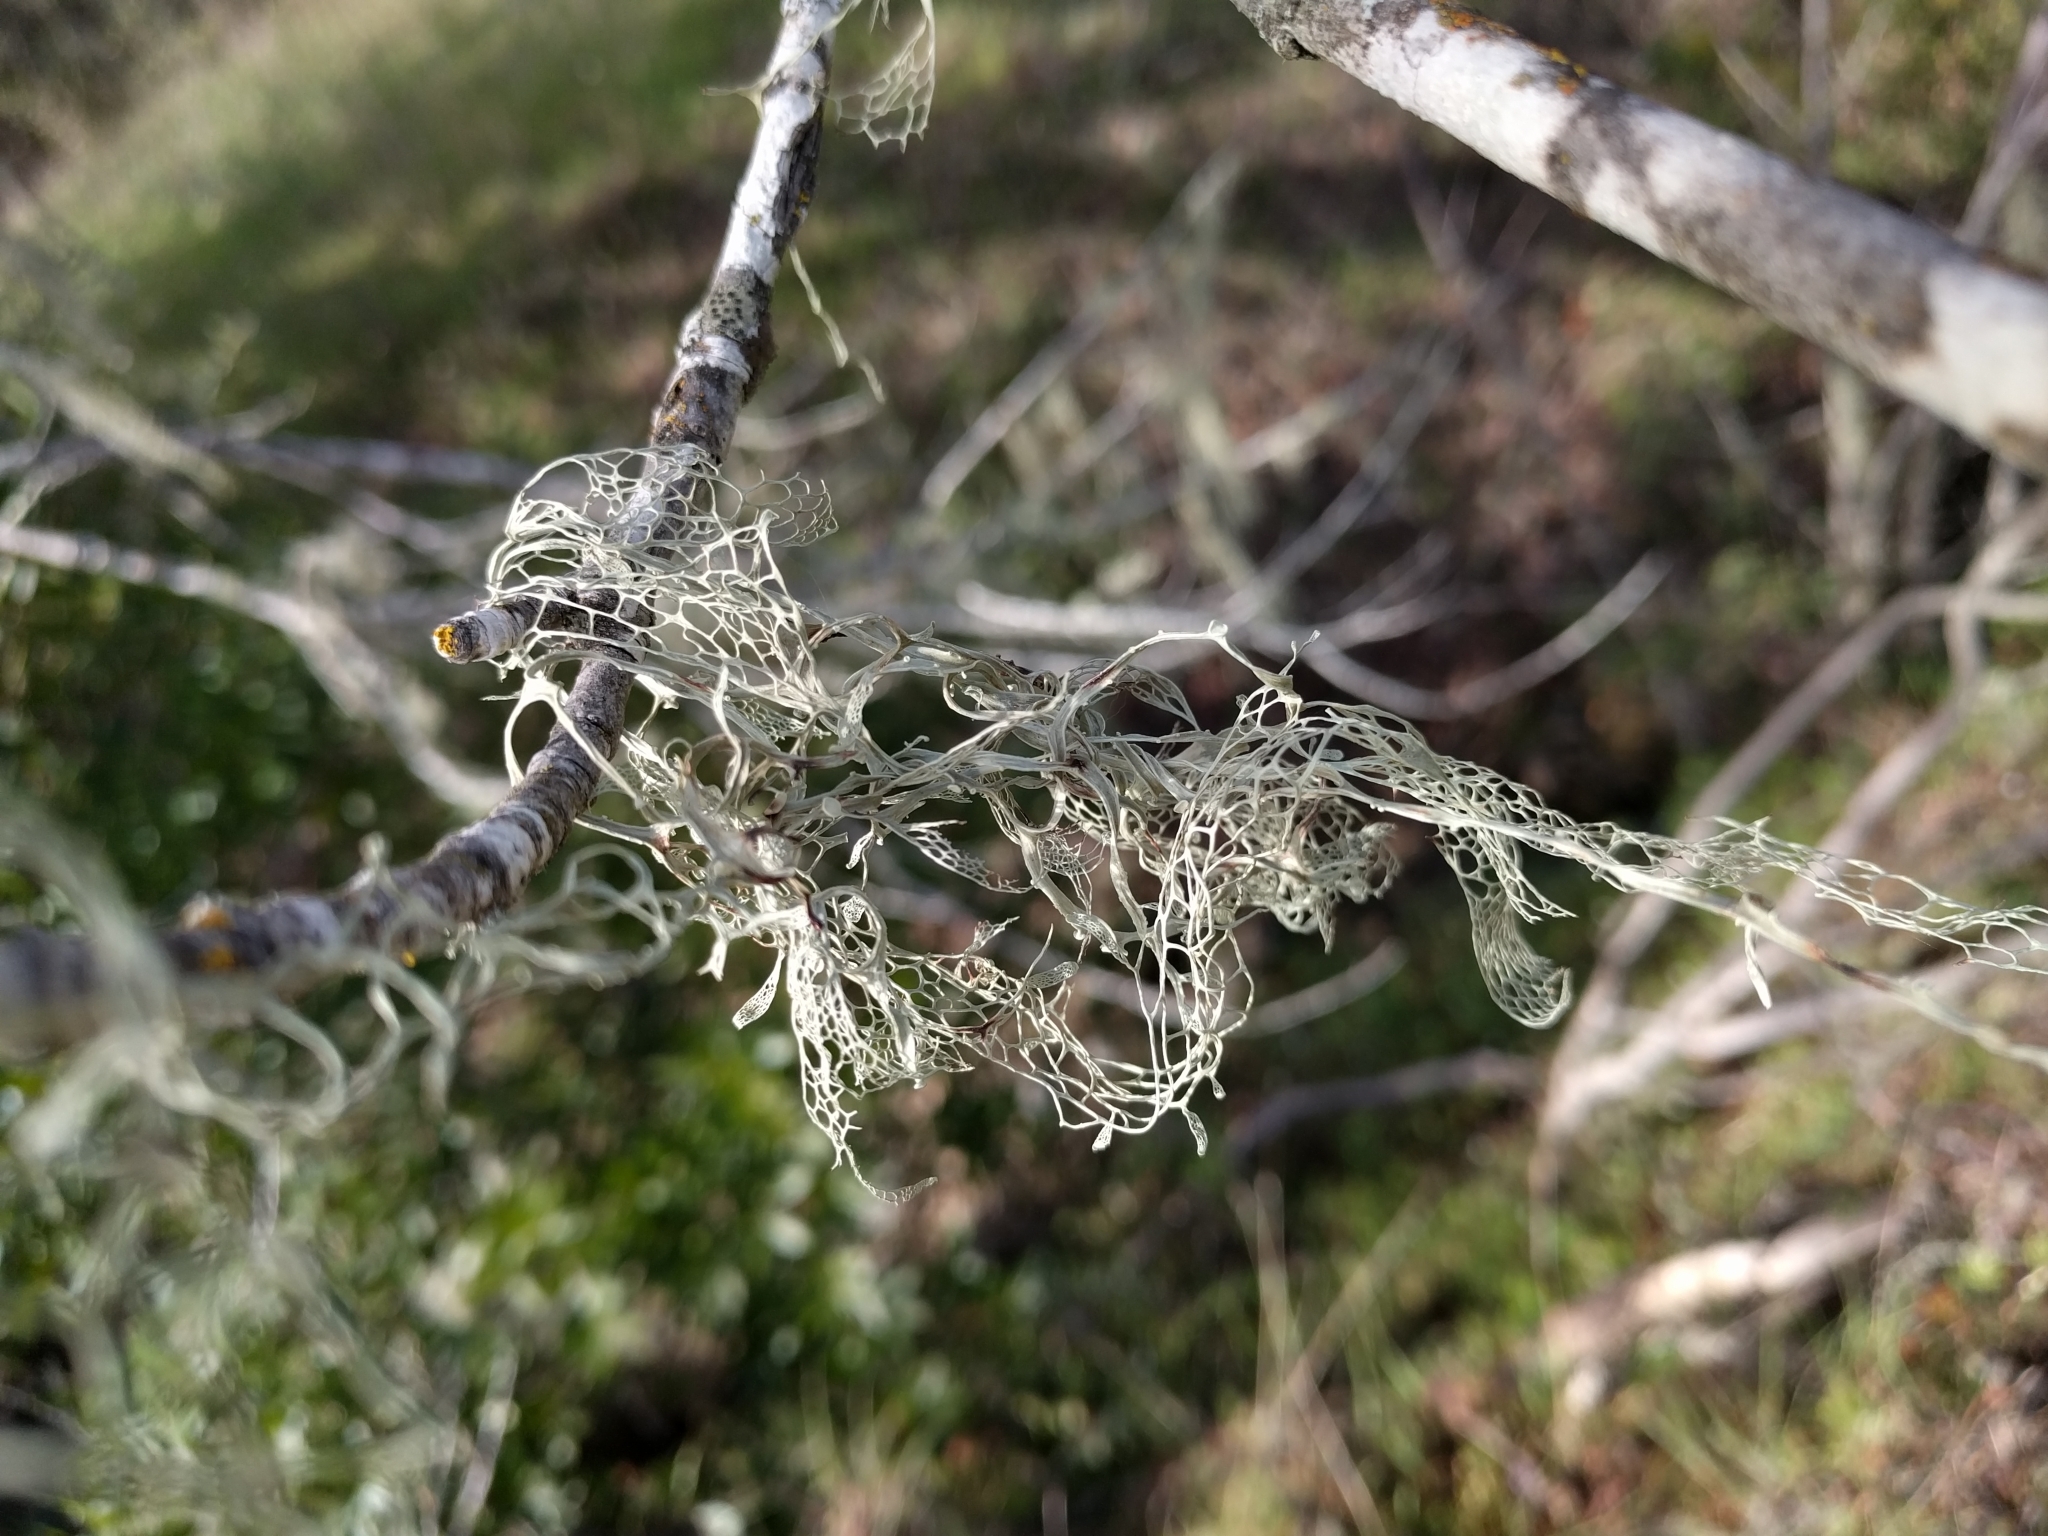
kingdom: Fungi
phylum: Ascomycota
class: Lecanoromycetes
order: Lecanorales
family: Ramalinaceae
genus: Ramalina
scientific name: Ramalina menziesii
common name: Lace lichen
